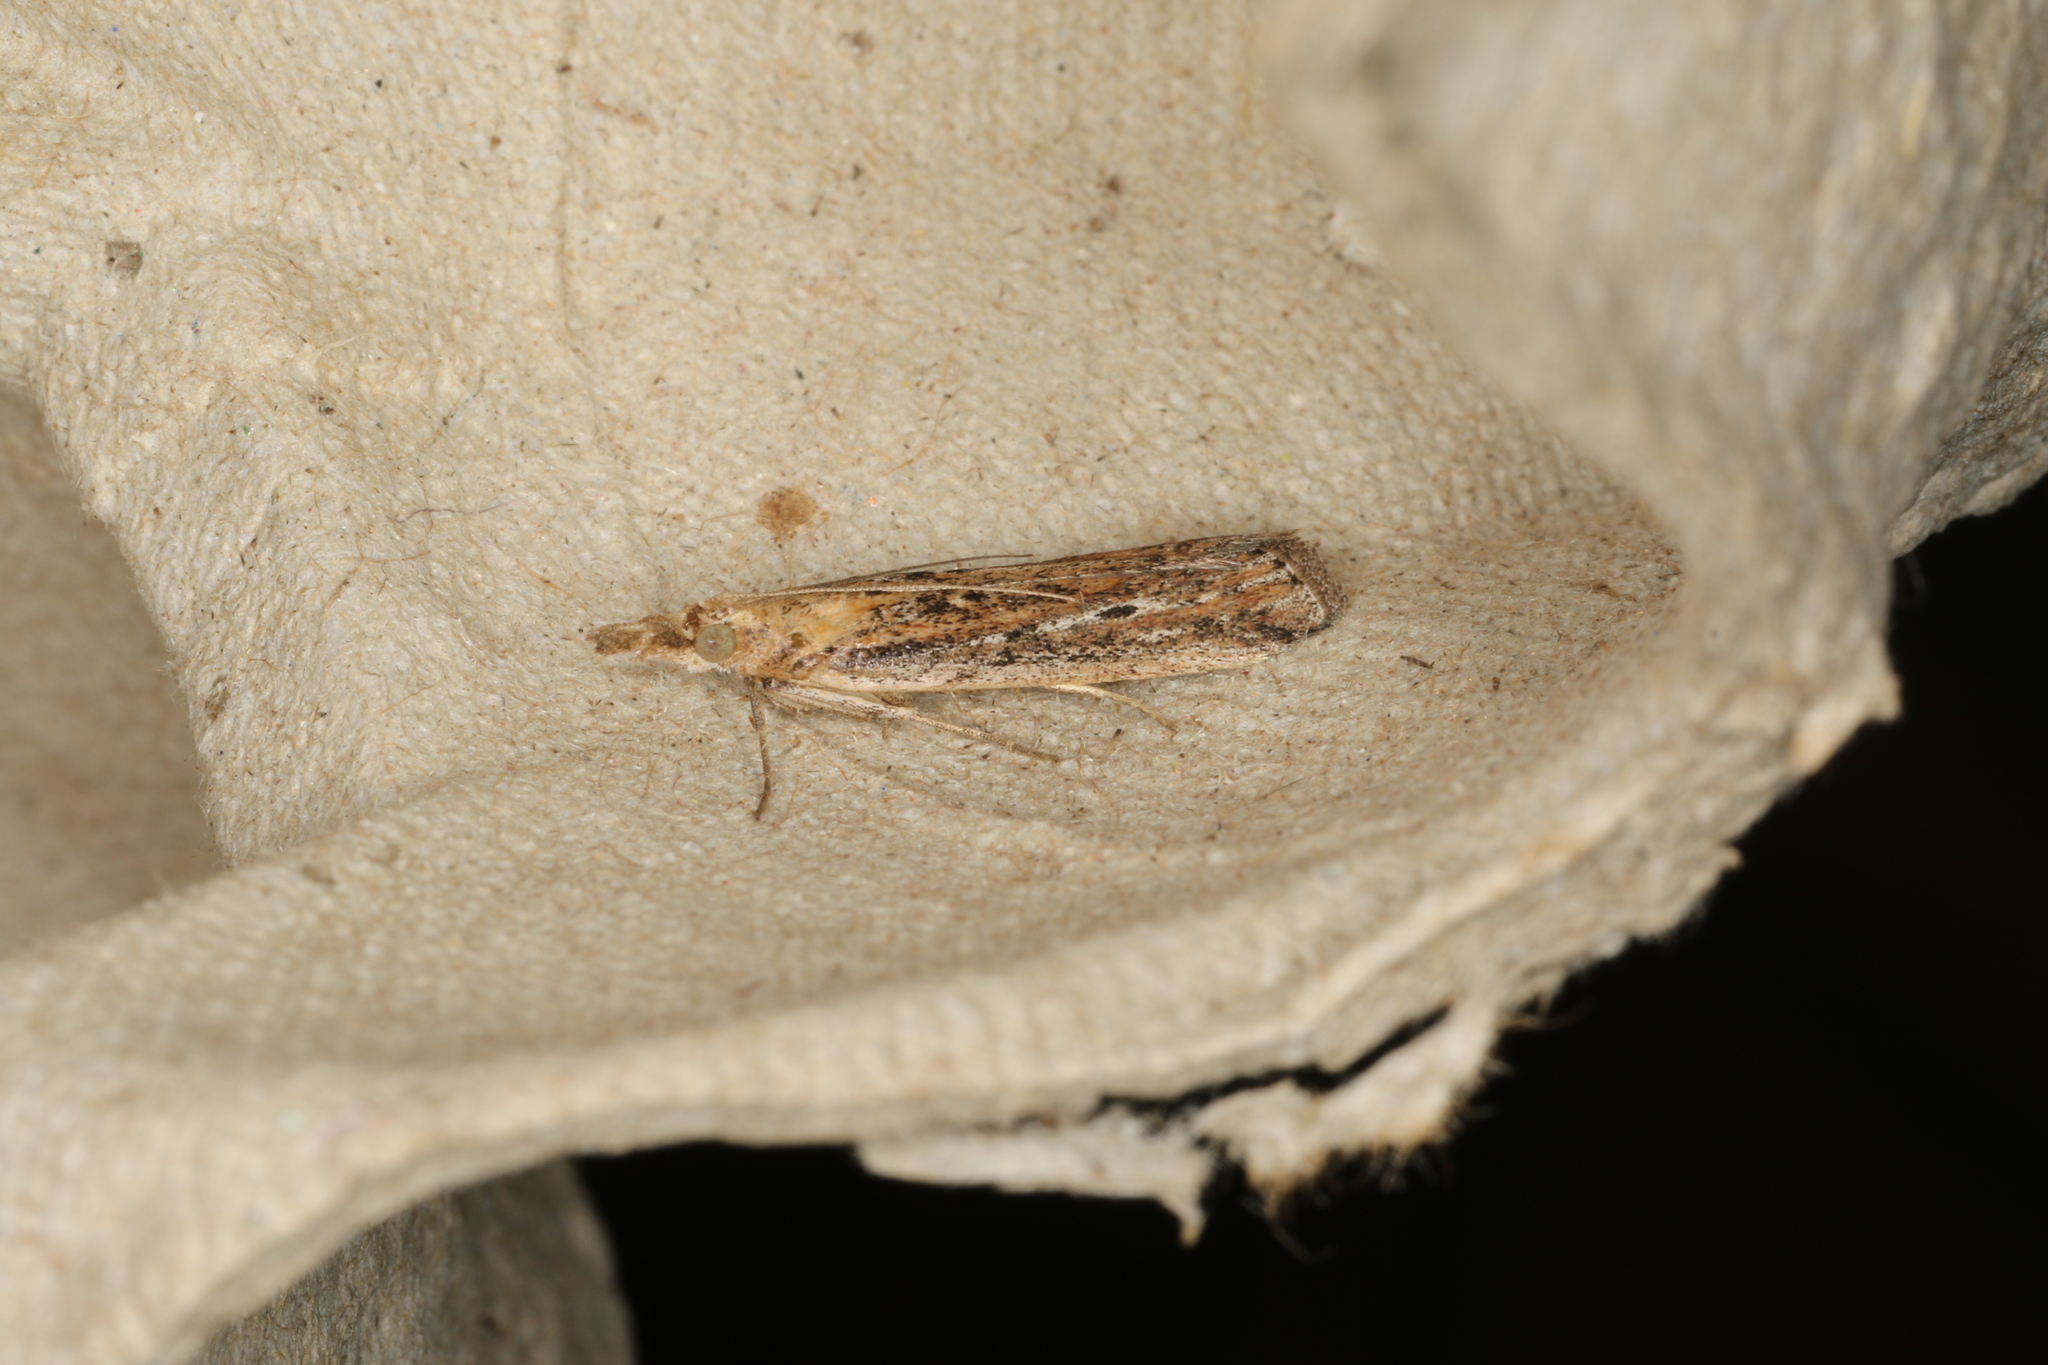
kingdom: Animalia
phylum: Arthropoda
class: Insecta
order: Lepidoptera
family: Pyralidae
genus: Faveria
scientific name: Faveria tritalis
